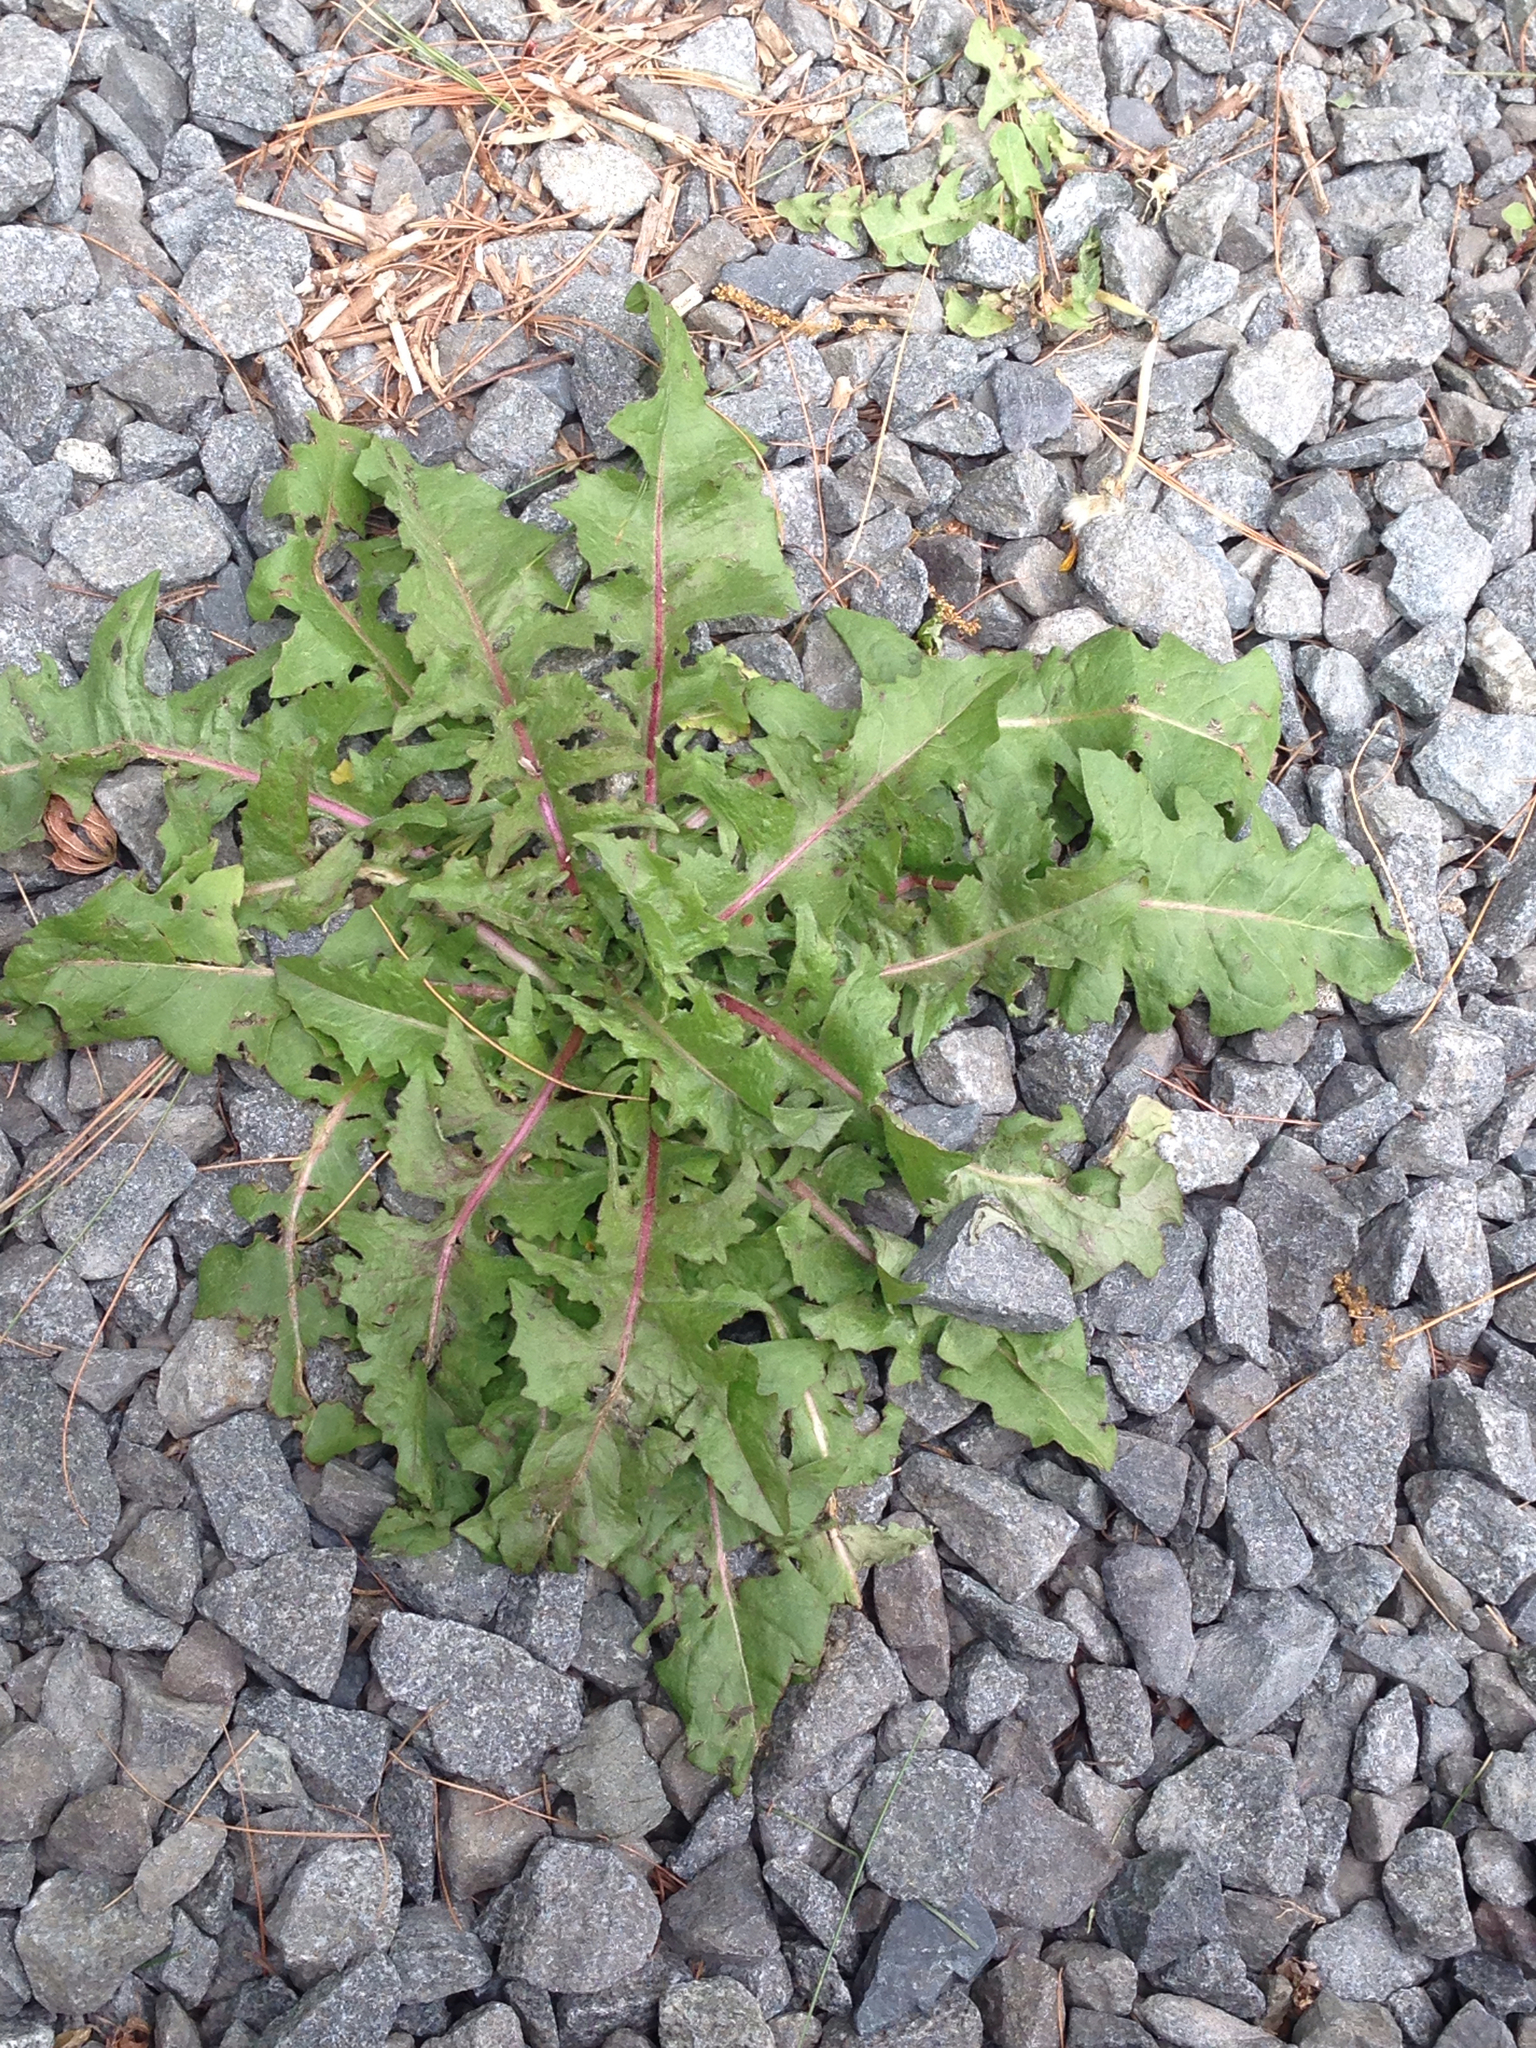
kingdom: Plantae
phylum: Tracheophyta
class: Magnoliopsida
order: Asterales
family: Asteraceae
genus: Cichorium
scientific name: Cichorium intybus
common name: Chicory
